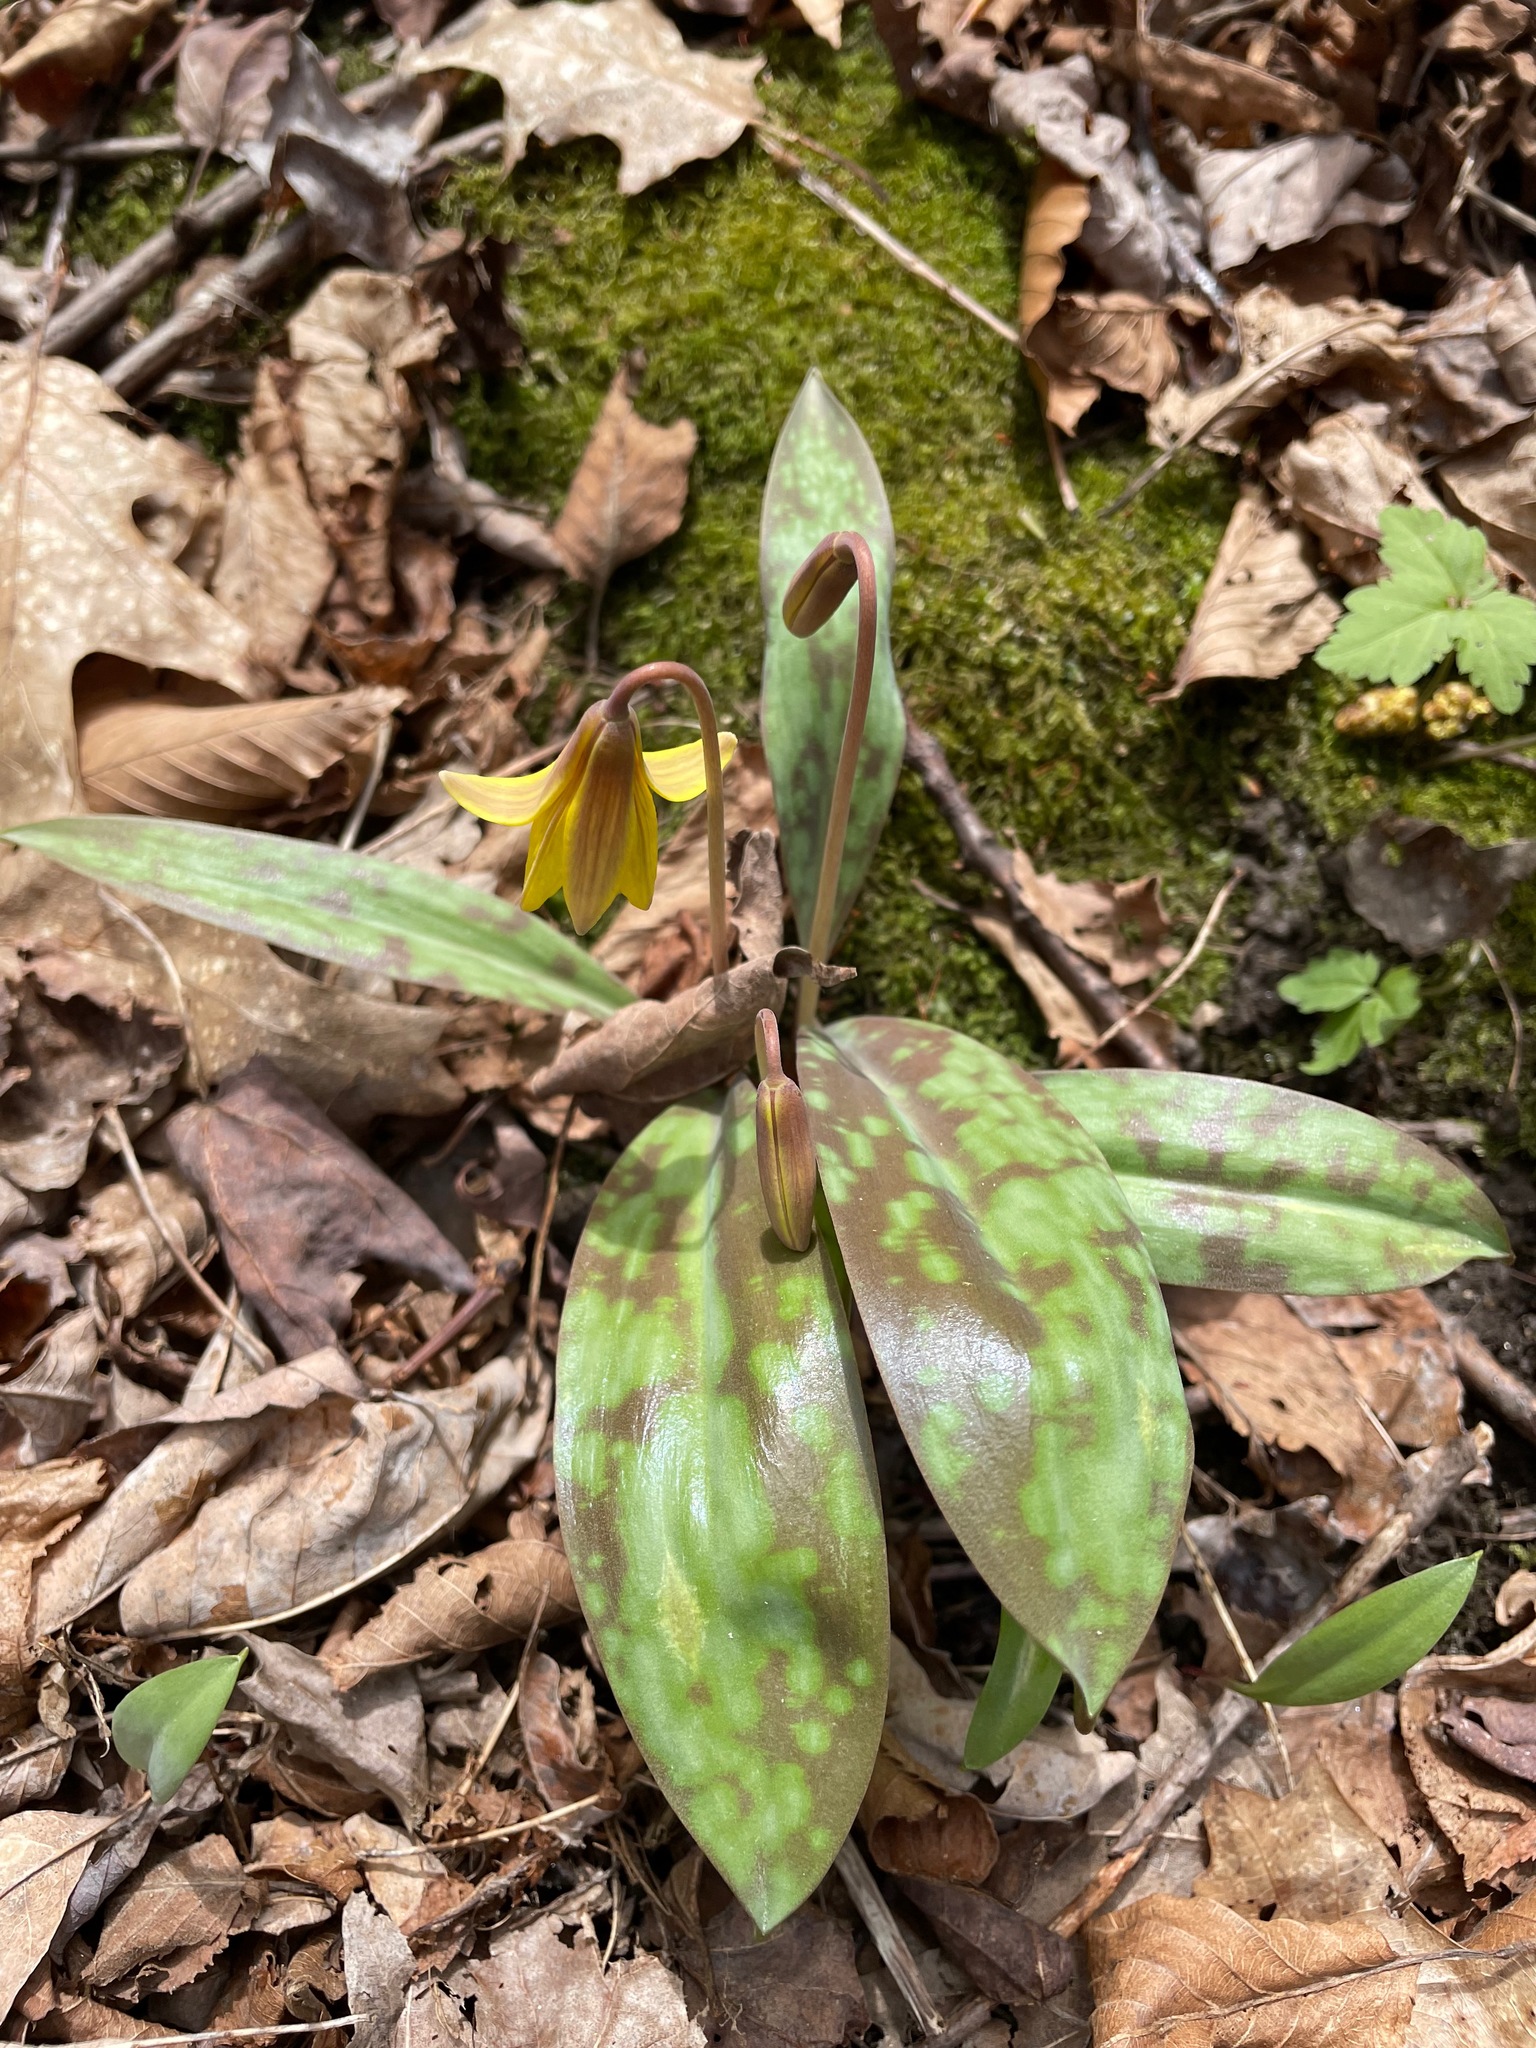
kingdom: Plantae
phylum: Tracheophyta
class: Liliopsida
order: Liliales
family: Liliaceae
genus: Erythronium
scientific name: Erythronium americanum
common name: Yellow adder's-tongue
